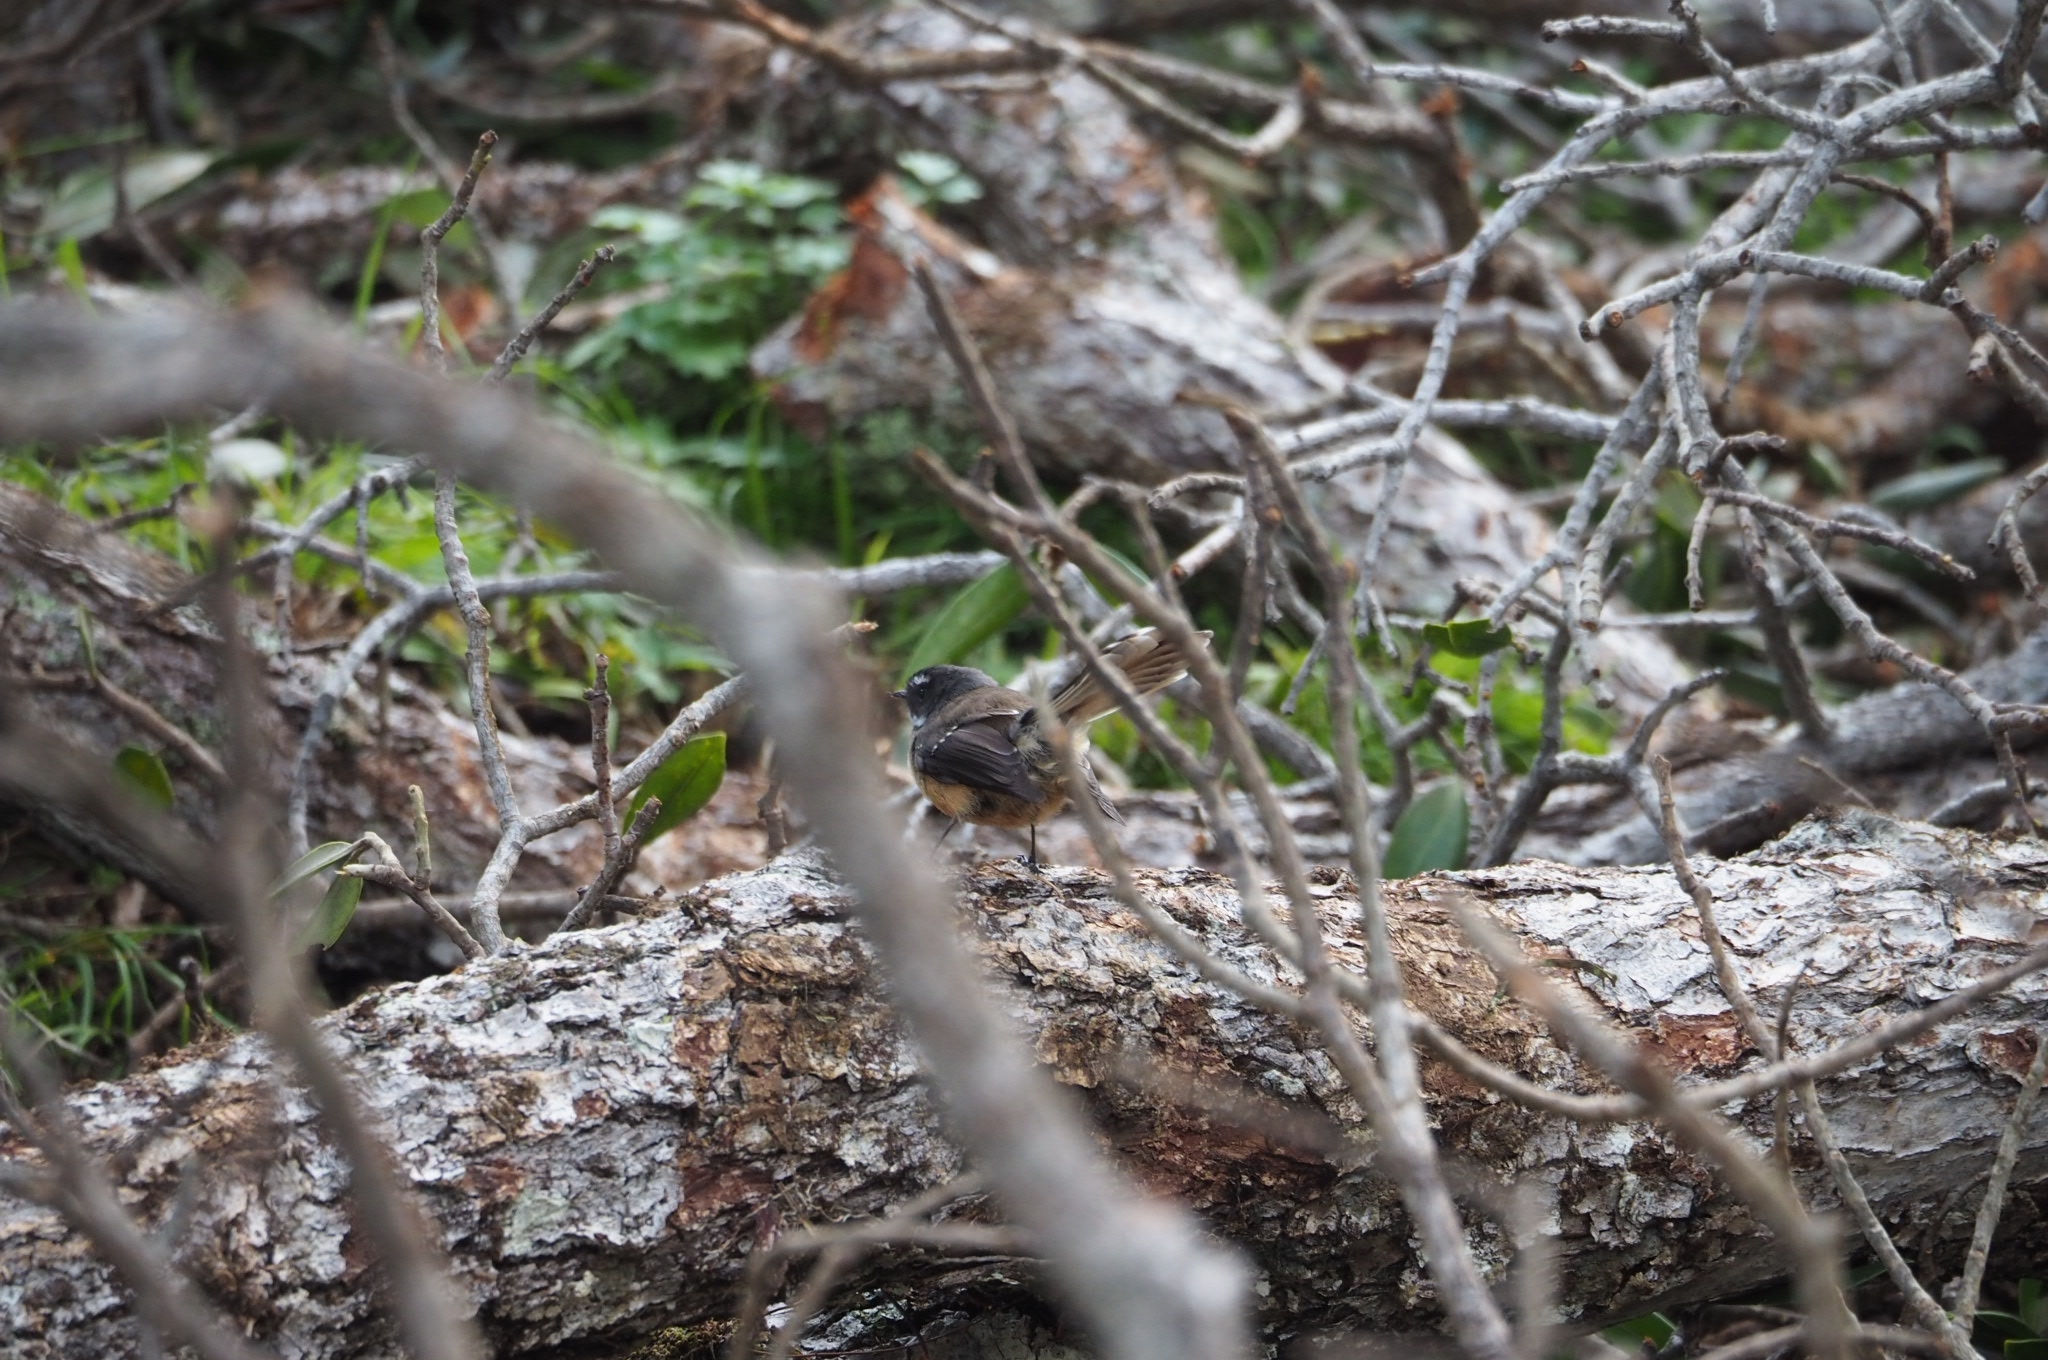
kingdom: Animalia
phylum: Chordata
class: Aves
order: Passeriformes
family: Rhipiduridae
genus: Rhipidura
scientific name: Rhipidura fuliginosa
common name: New zealand fantail
